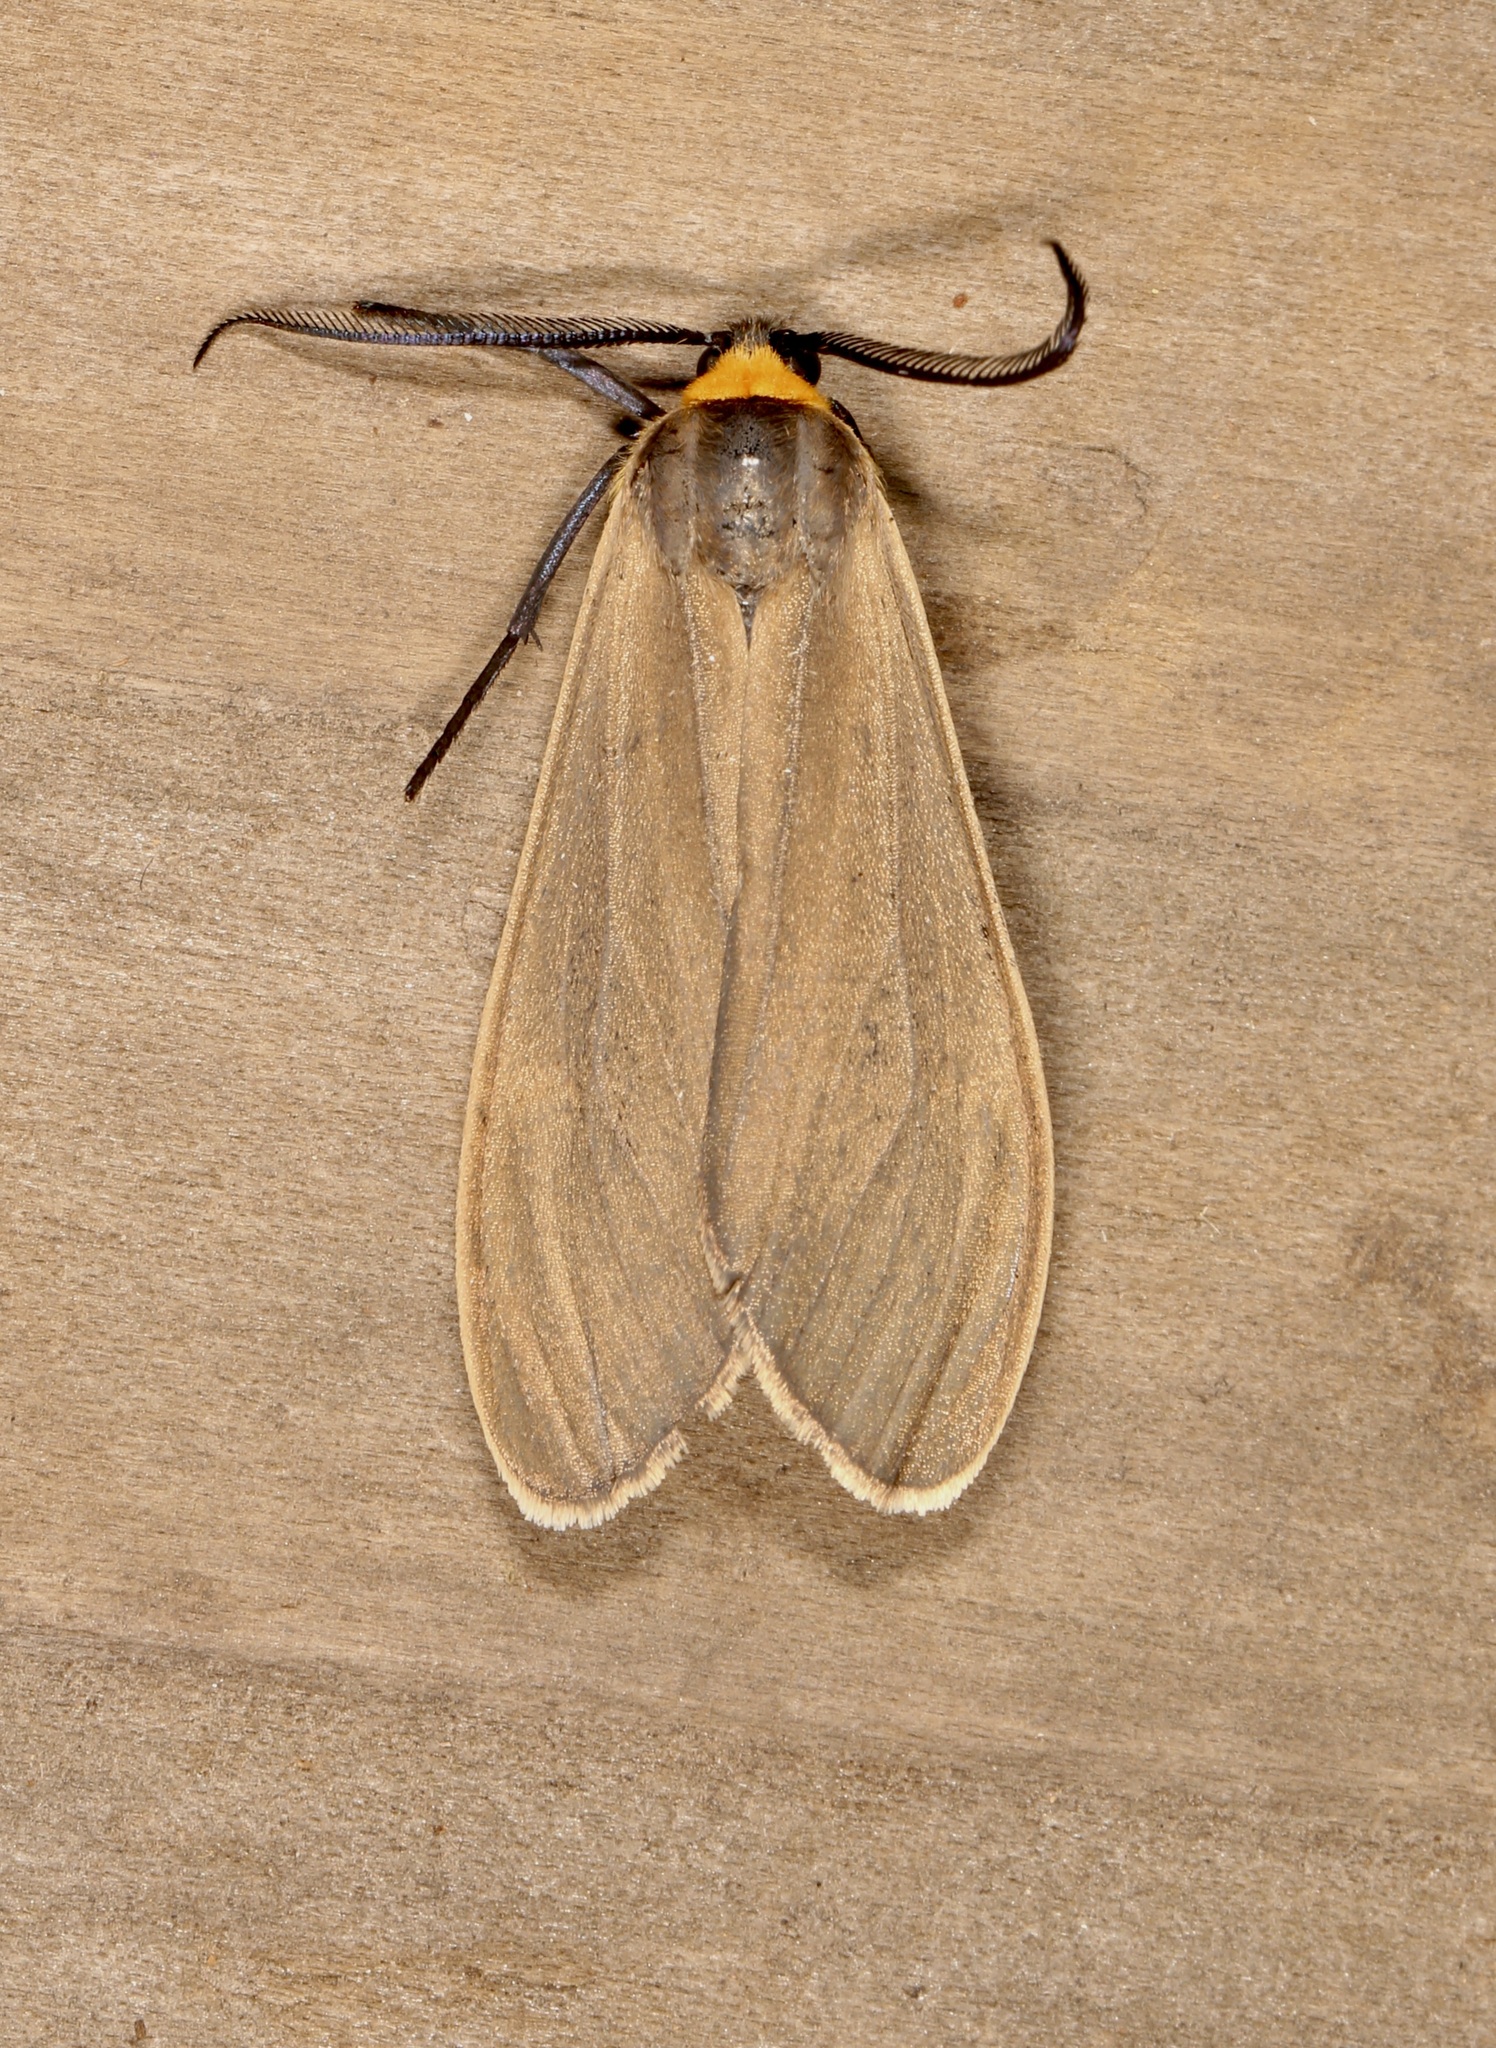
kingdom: Animalia
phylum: Arthropoda
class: Insecta
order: Lepidoptera
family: Erebidae
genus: Cisseps
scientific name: Cisseps fulvicollis
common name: Yellow-collared scape moth
